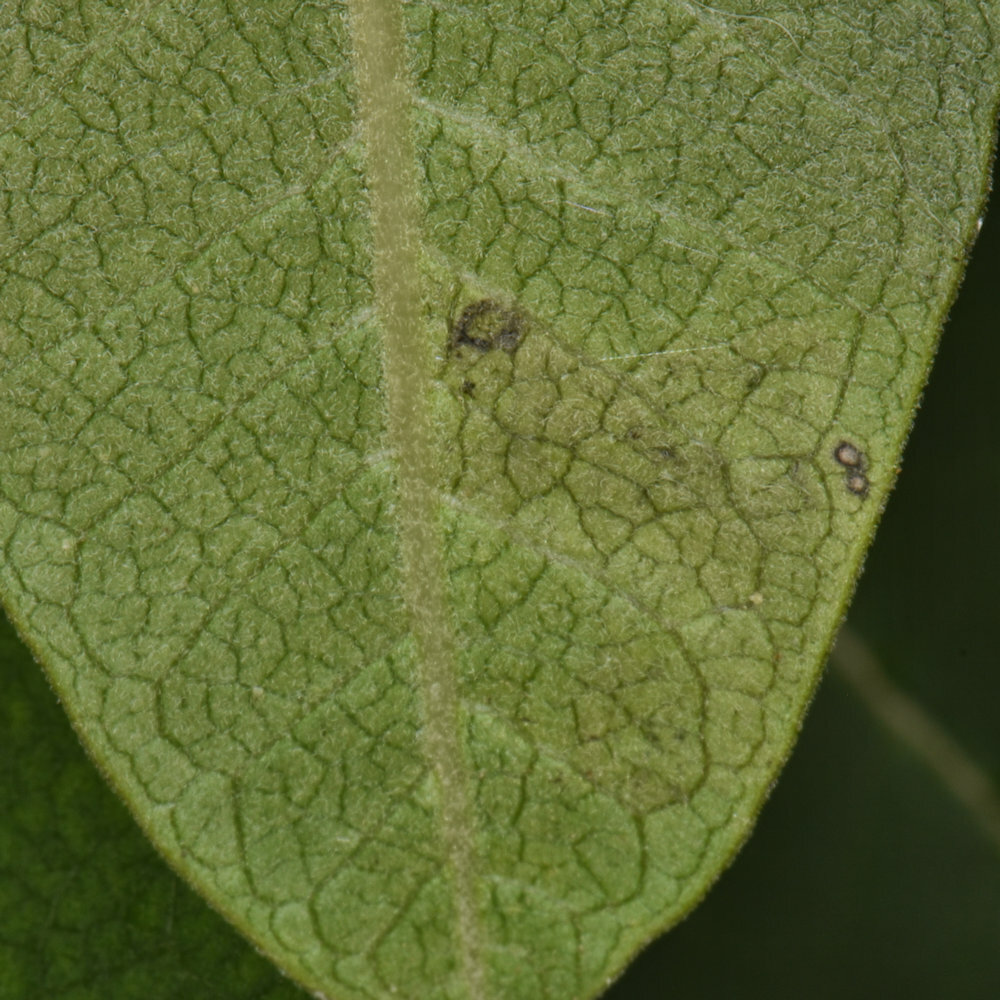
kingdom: Animalia
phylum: Arthropoda
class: Insecta
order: Diptera
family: Agromyzidae
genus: Liriomyza
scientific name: Liriomyza asclepiadis
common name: Milkweed leaf-miner fly
